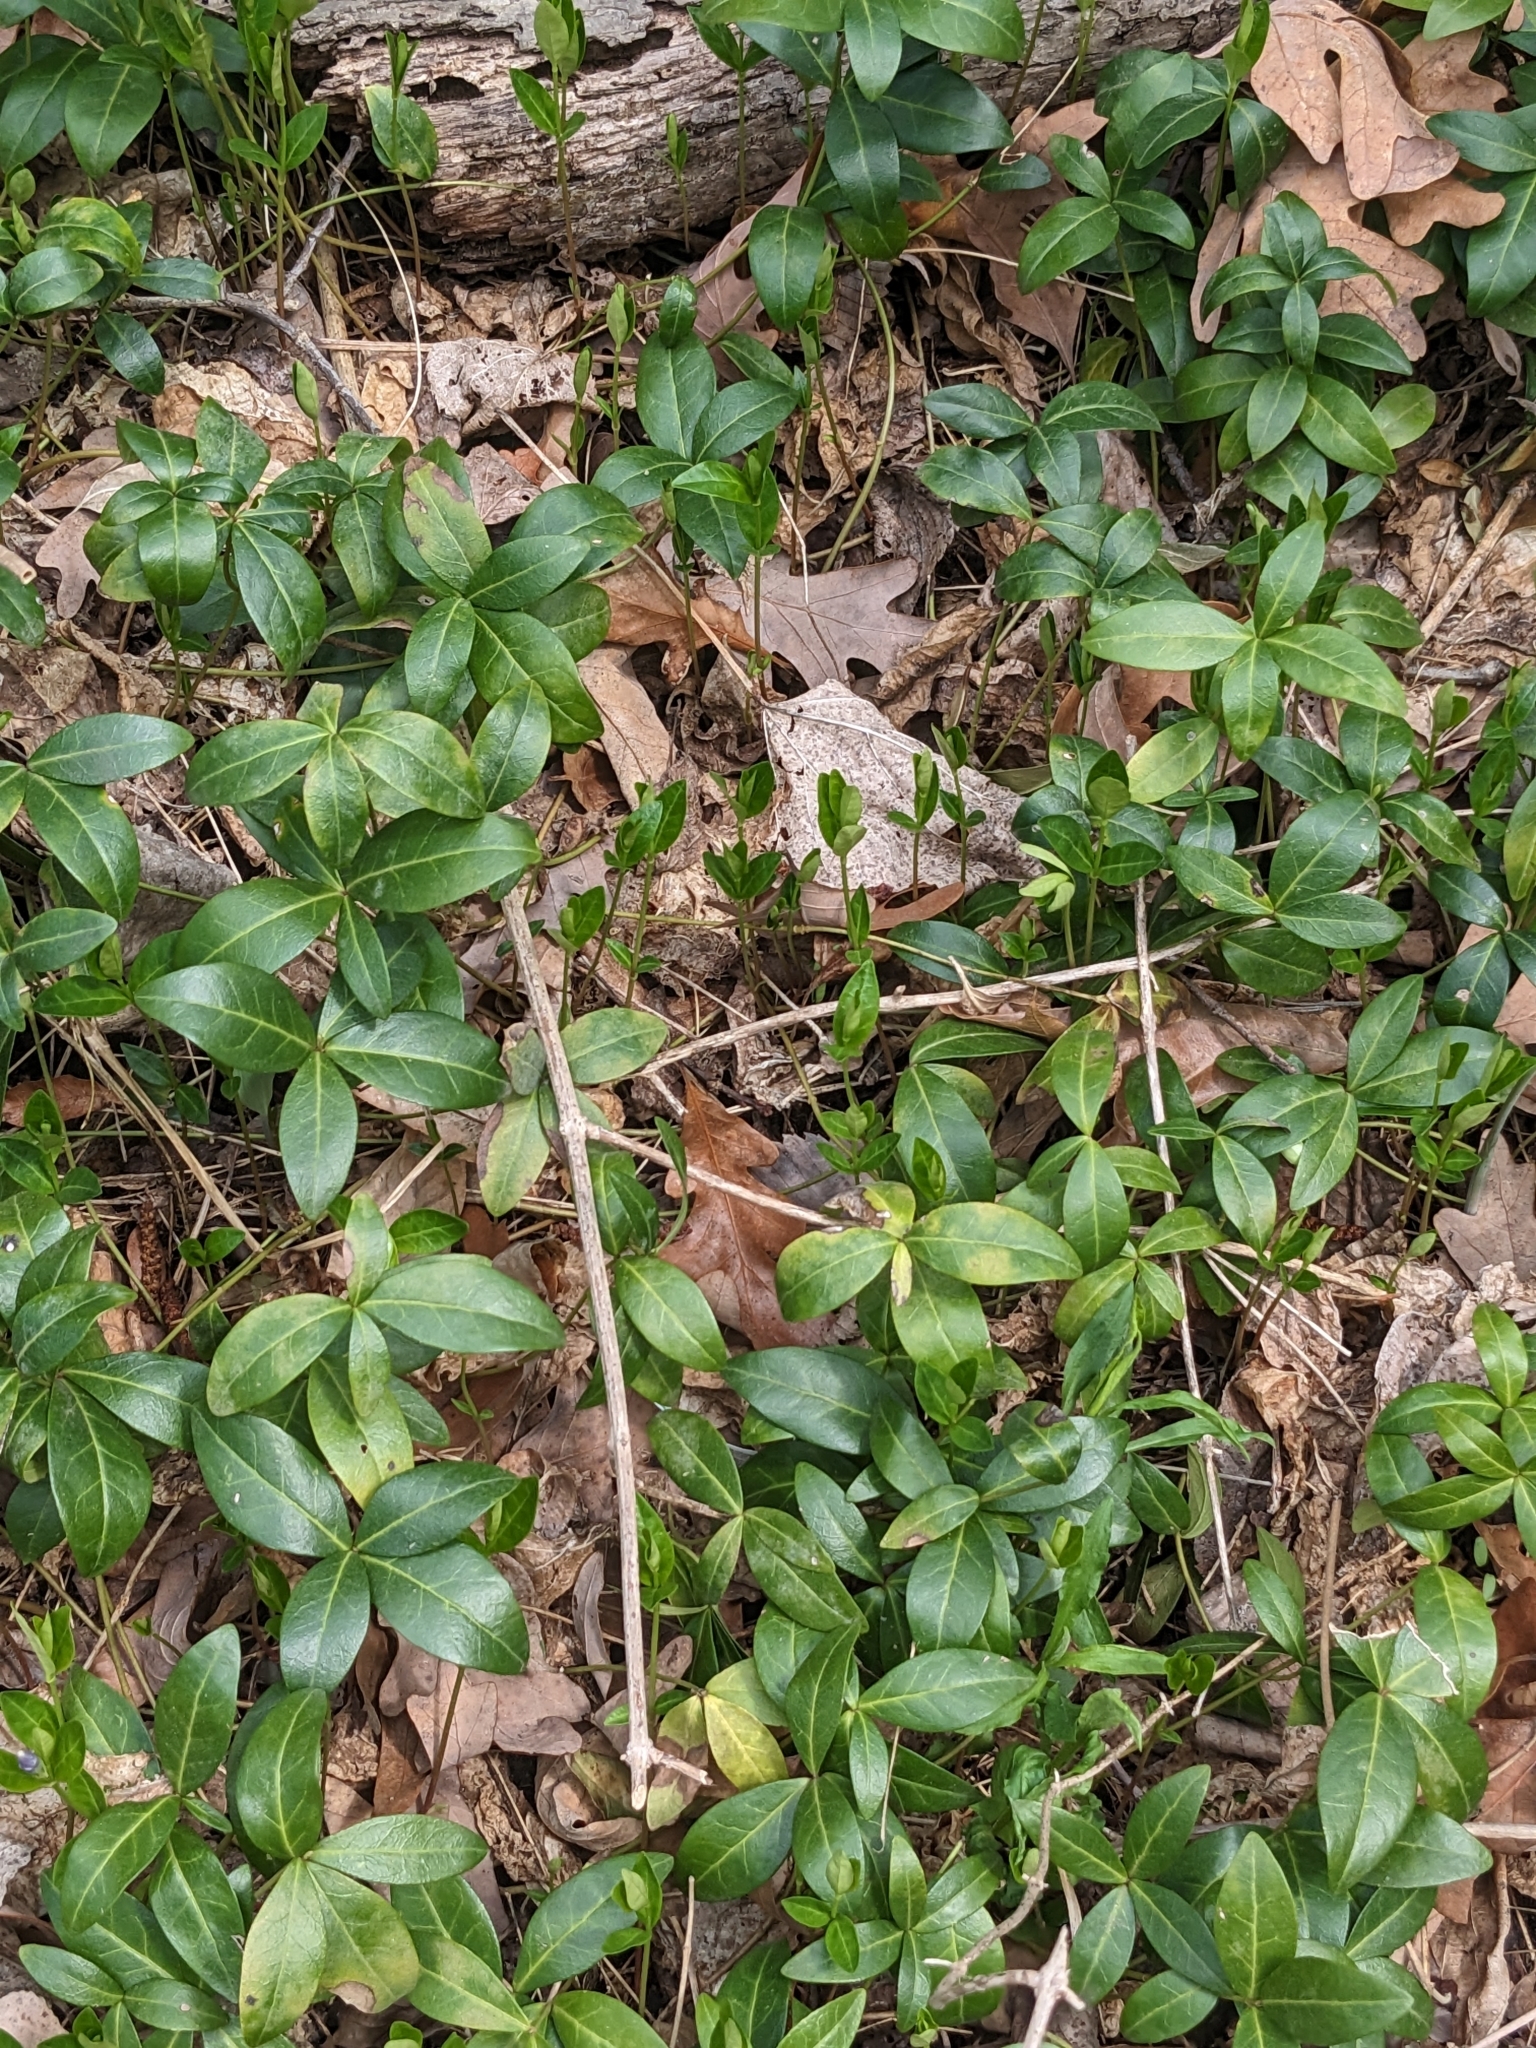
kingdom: Plantae
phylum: Tracheophyta
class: Magnoliopsida
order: Gentianales
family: Apocynaceae
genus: Vinca
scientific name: Vinca minor
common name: Lesser periwinkle
